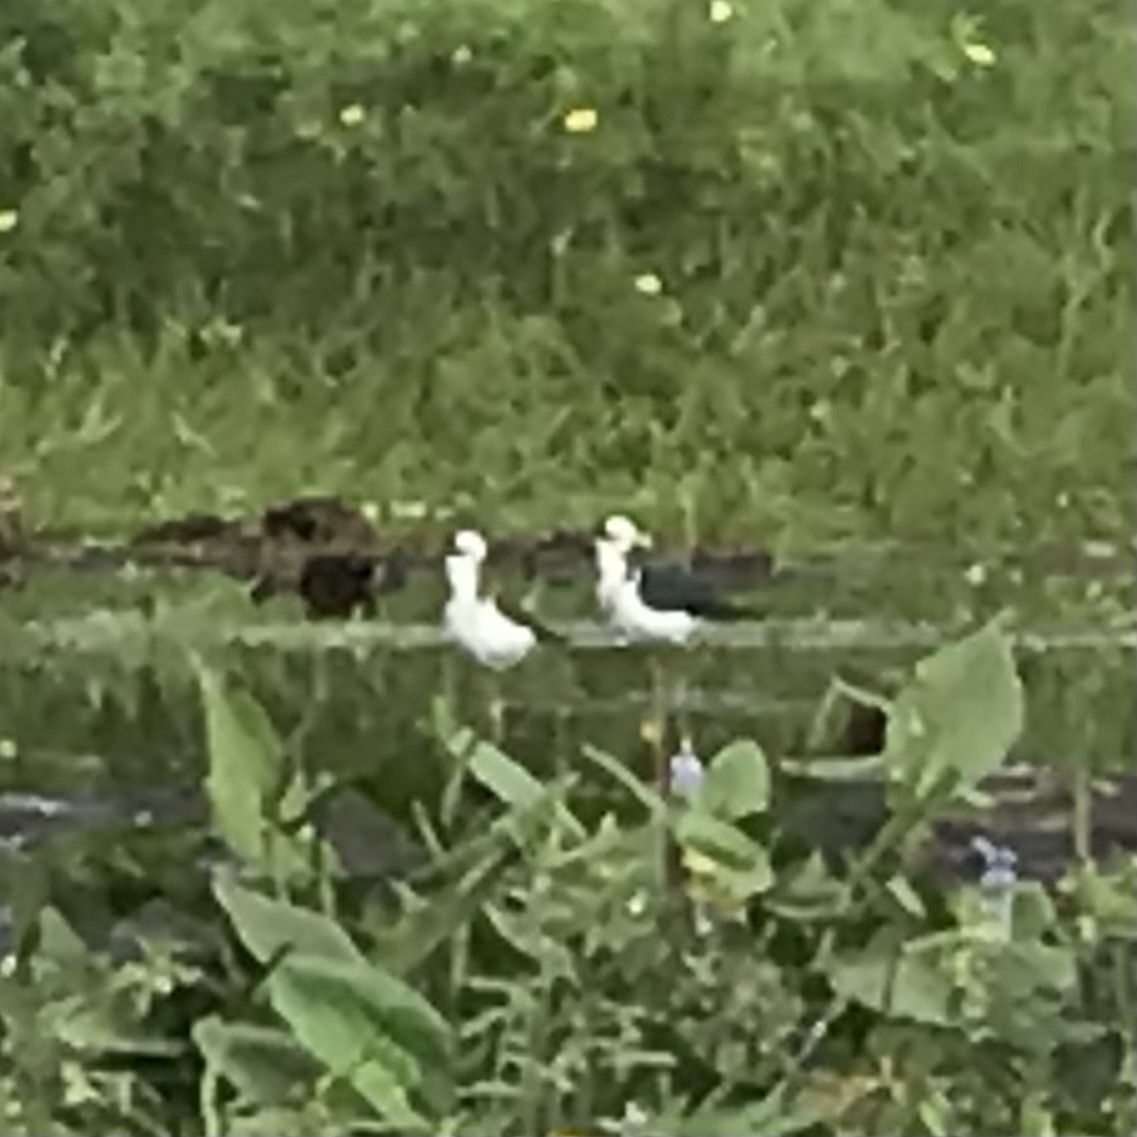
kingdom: Animalia
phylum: Chordata
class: Aves
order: Charadriiformes
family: Recurvirostridae
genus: Himantopus
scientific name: Himantopus mexicanus
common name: Black-necked stilt
